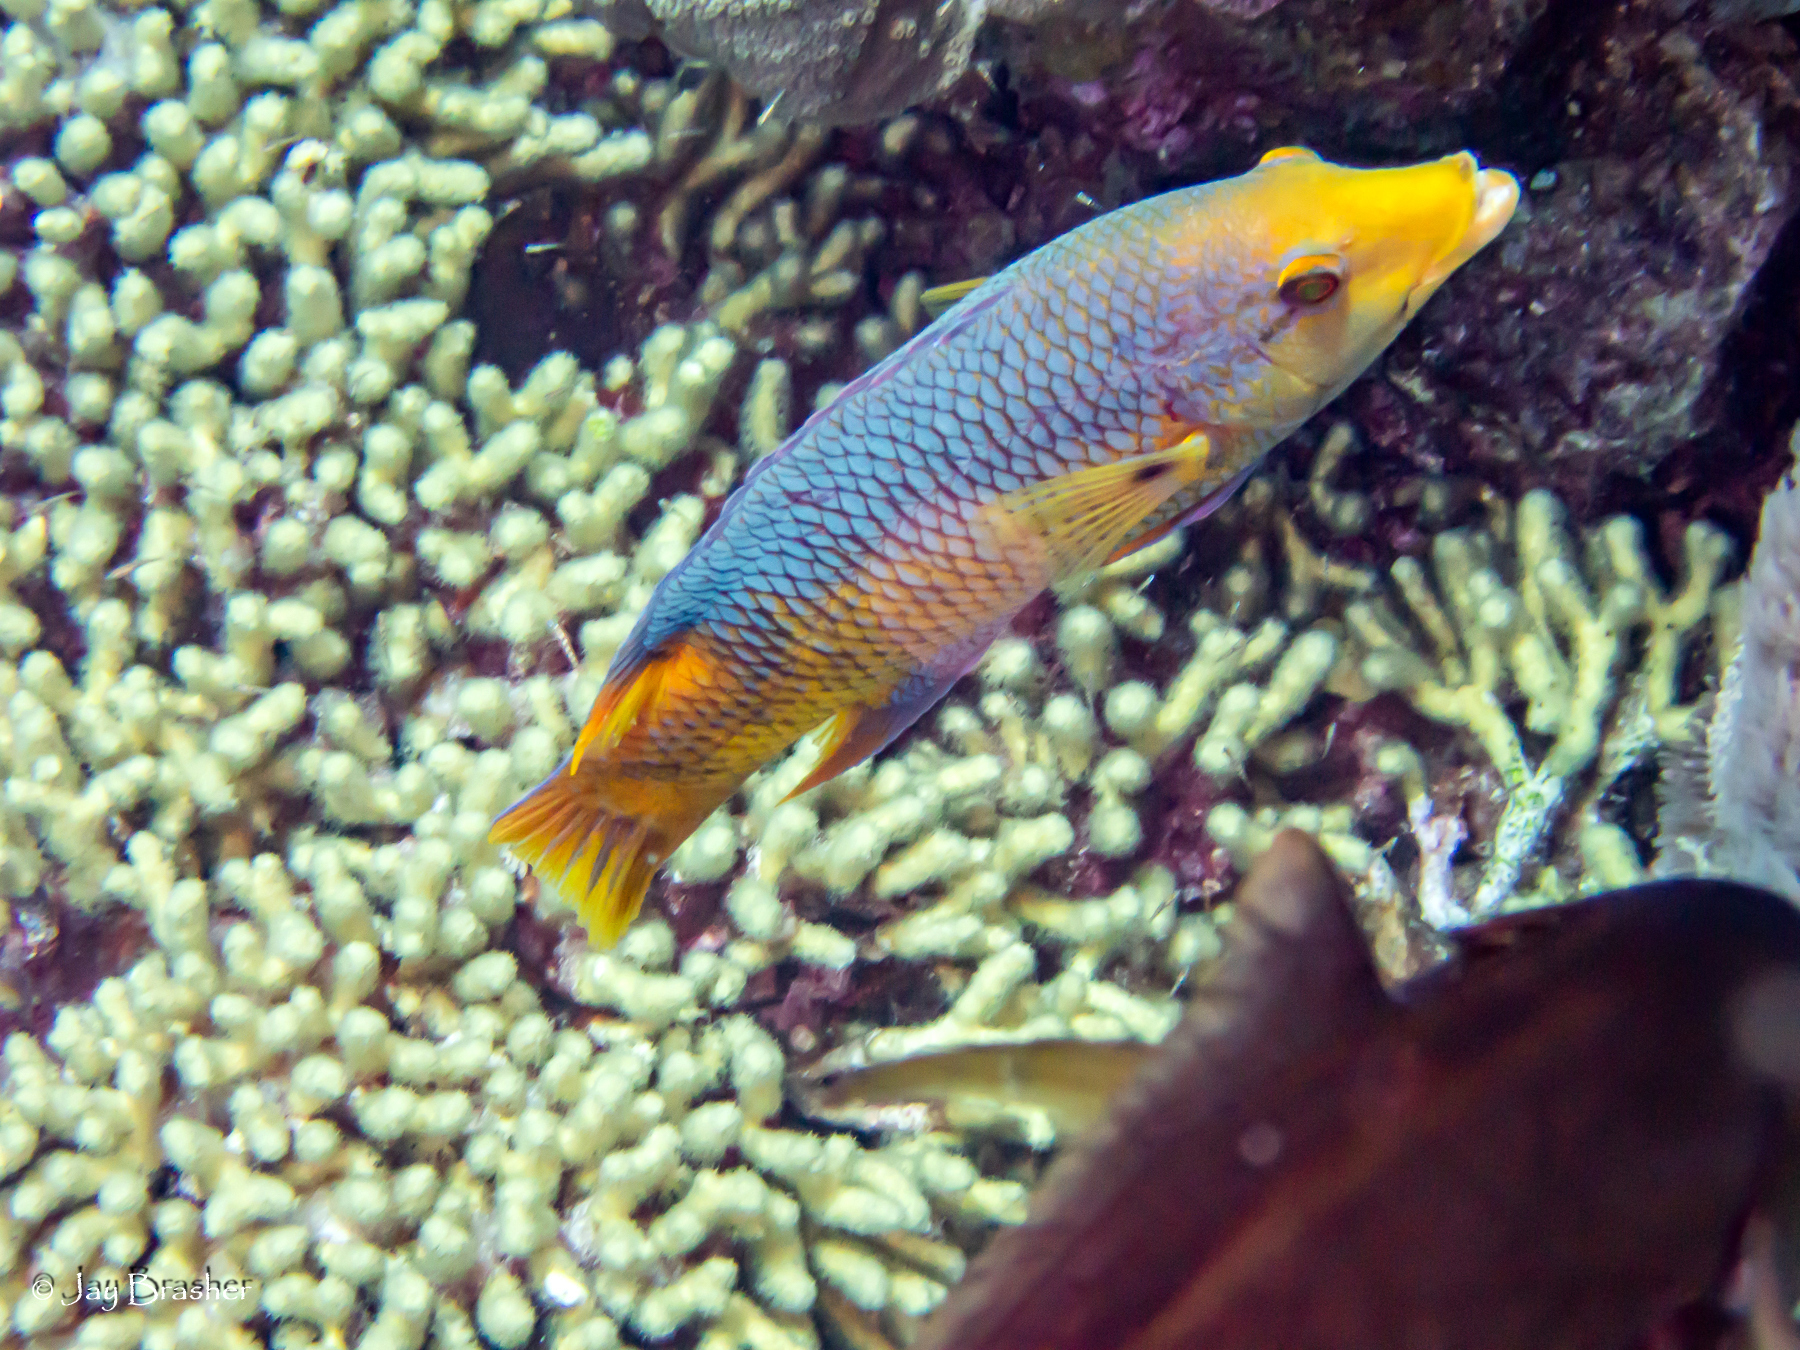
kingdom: Animalia
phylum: Chordata
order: Perciformes
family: Labridae
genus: Bodianus
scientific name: Bodianus rufus
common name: Spanish hogfish
